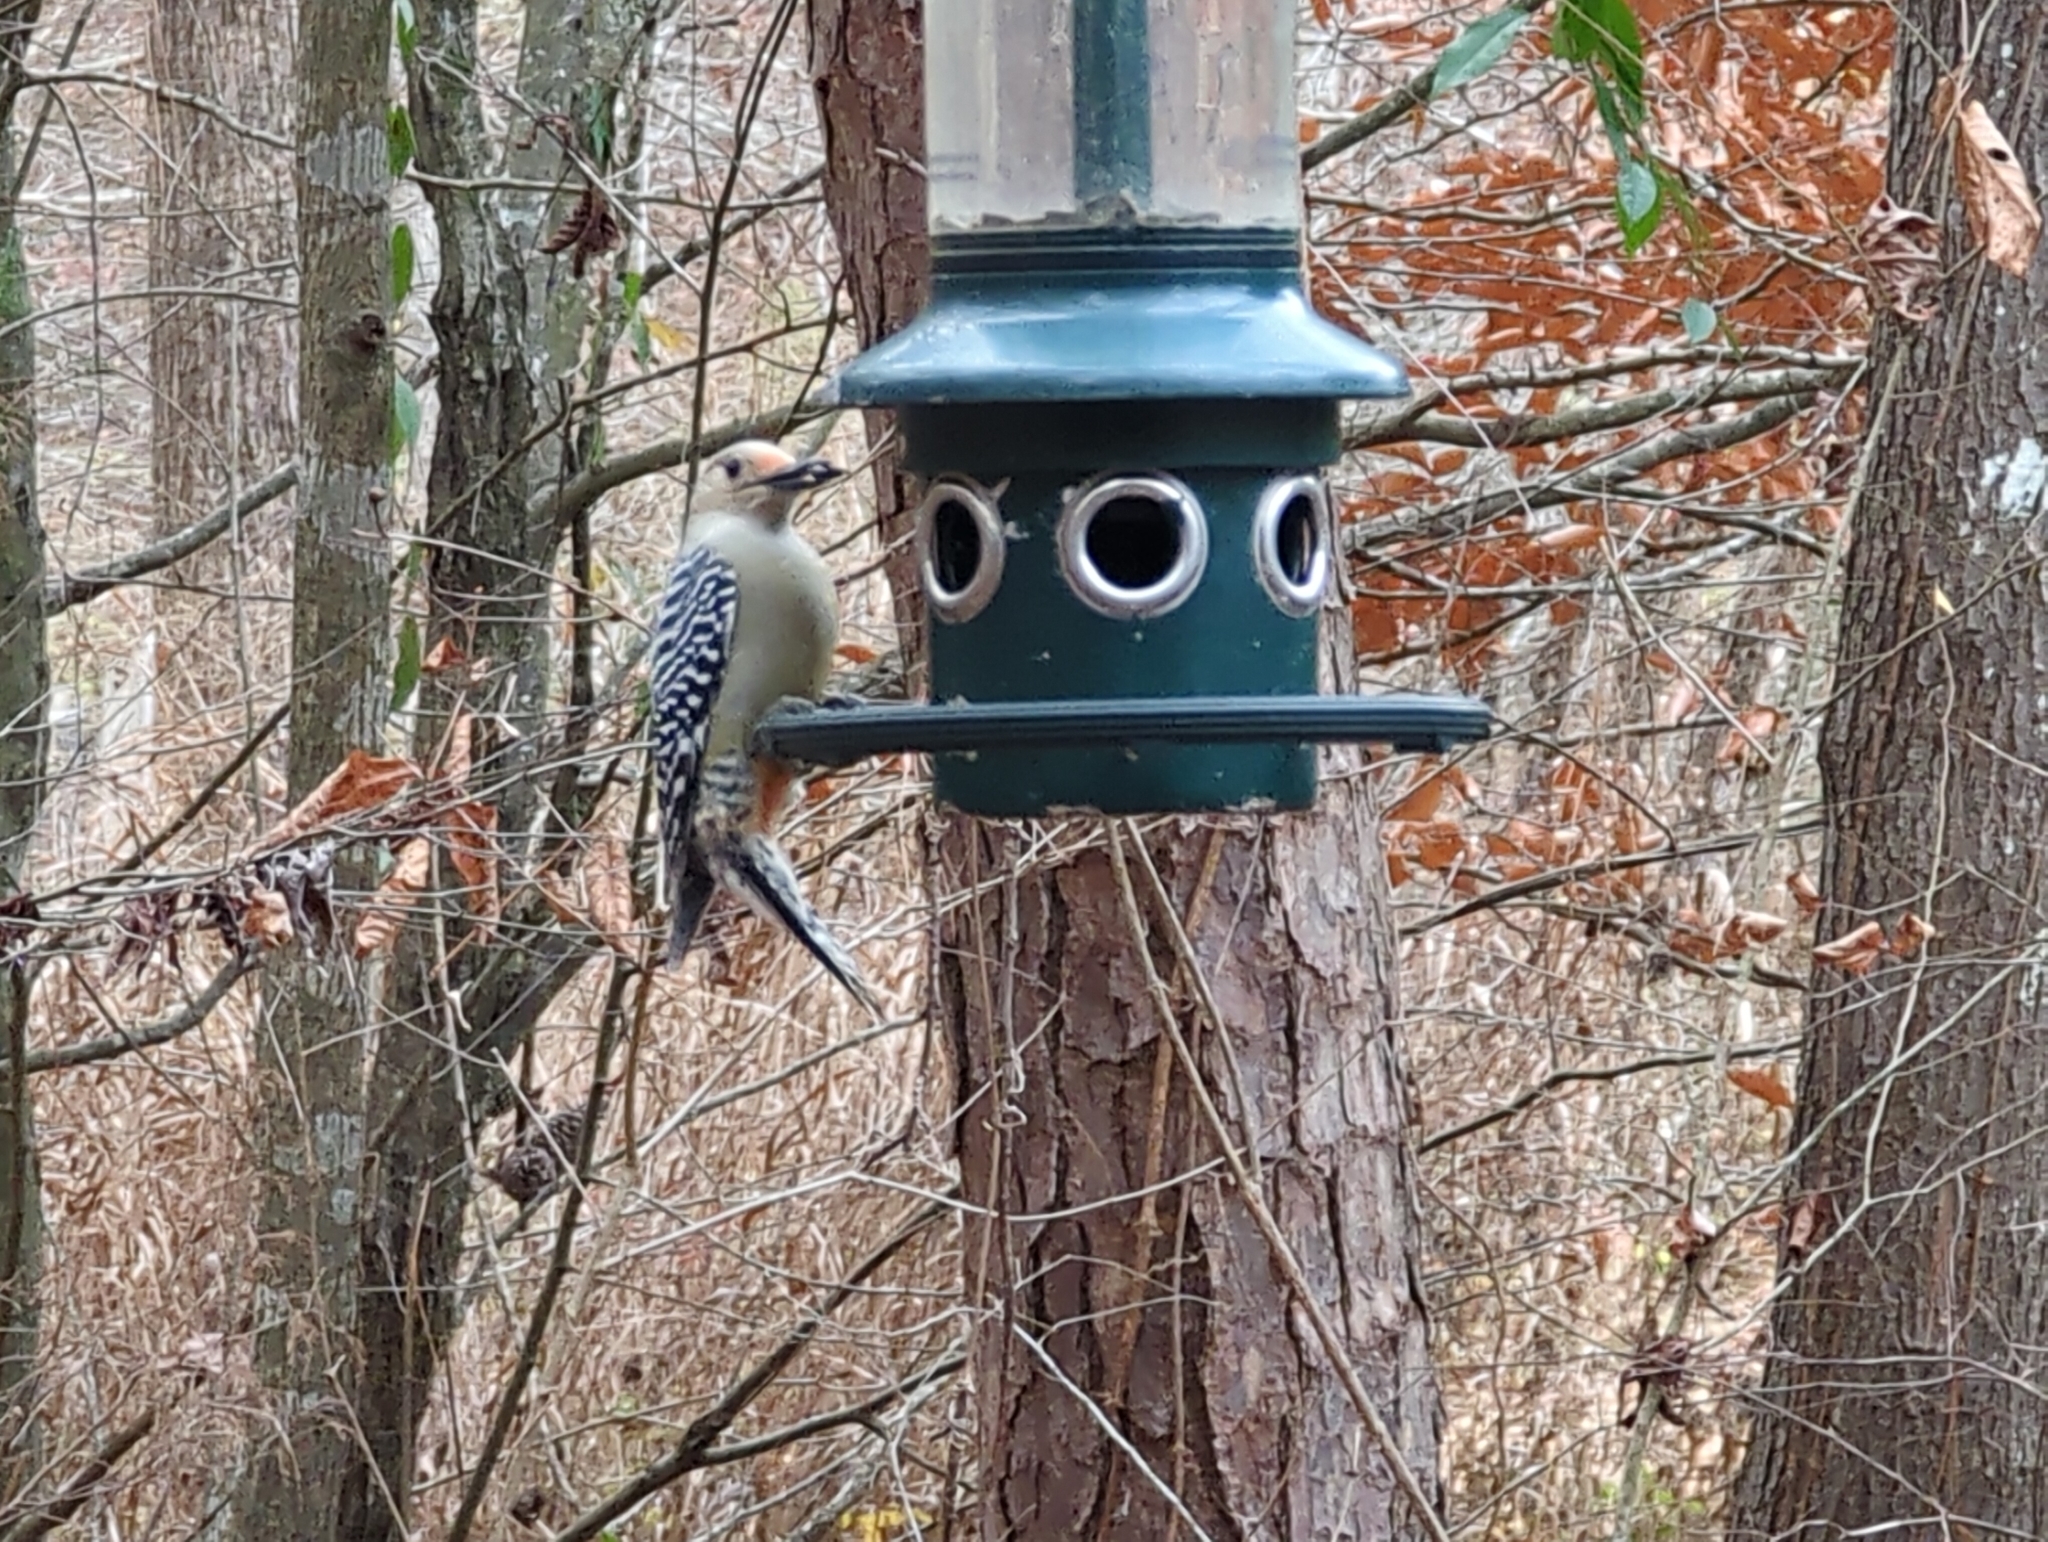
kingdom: Animalia
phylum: Chordata
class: Aves
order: Piciformes
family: Picidae
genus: Melanerpes
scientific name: Melanerpes carolinus
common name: Red-bellied woodpecker
